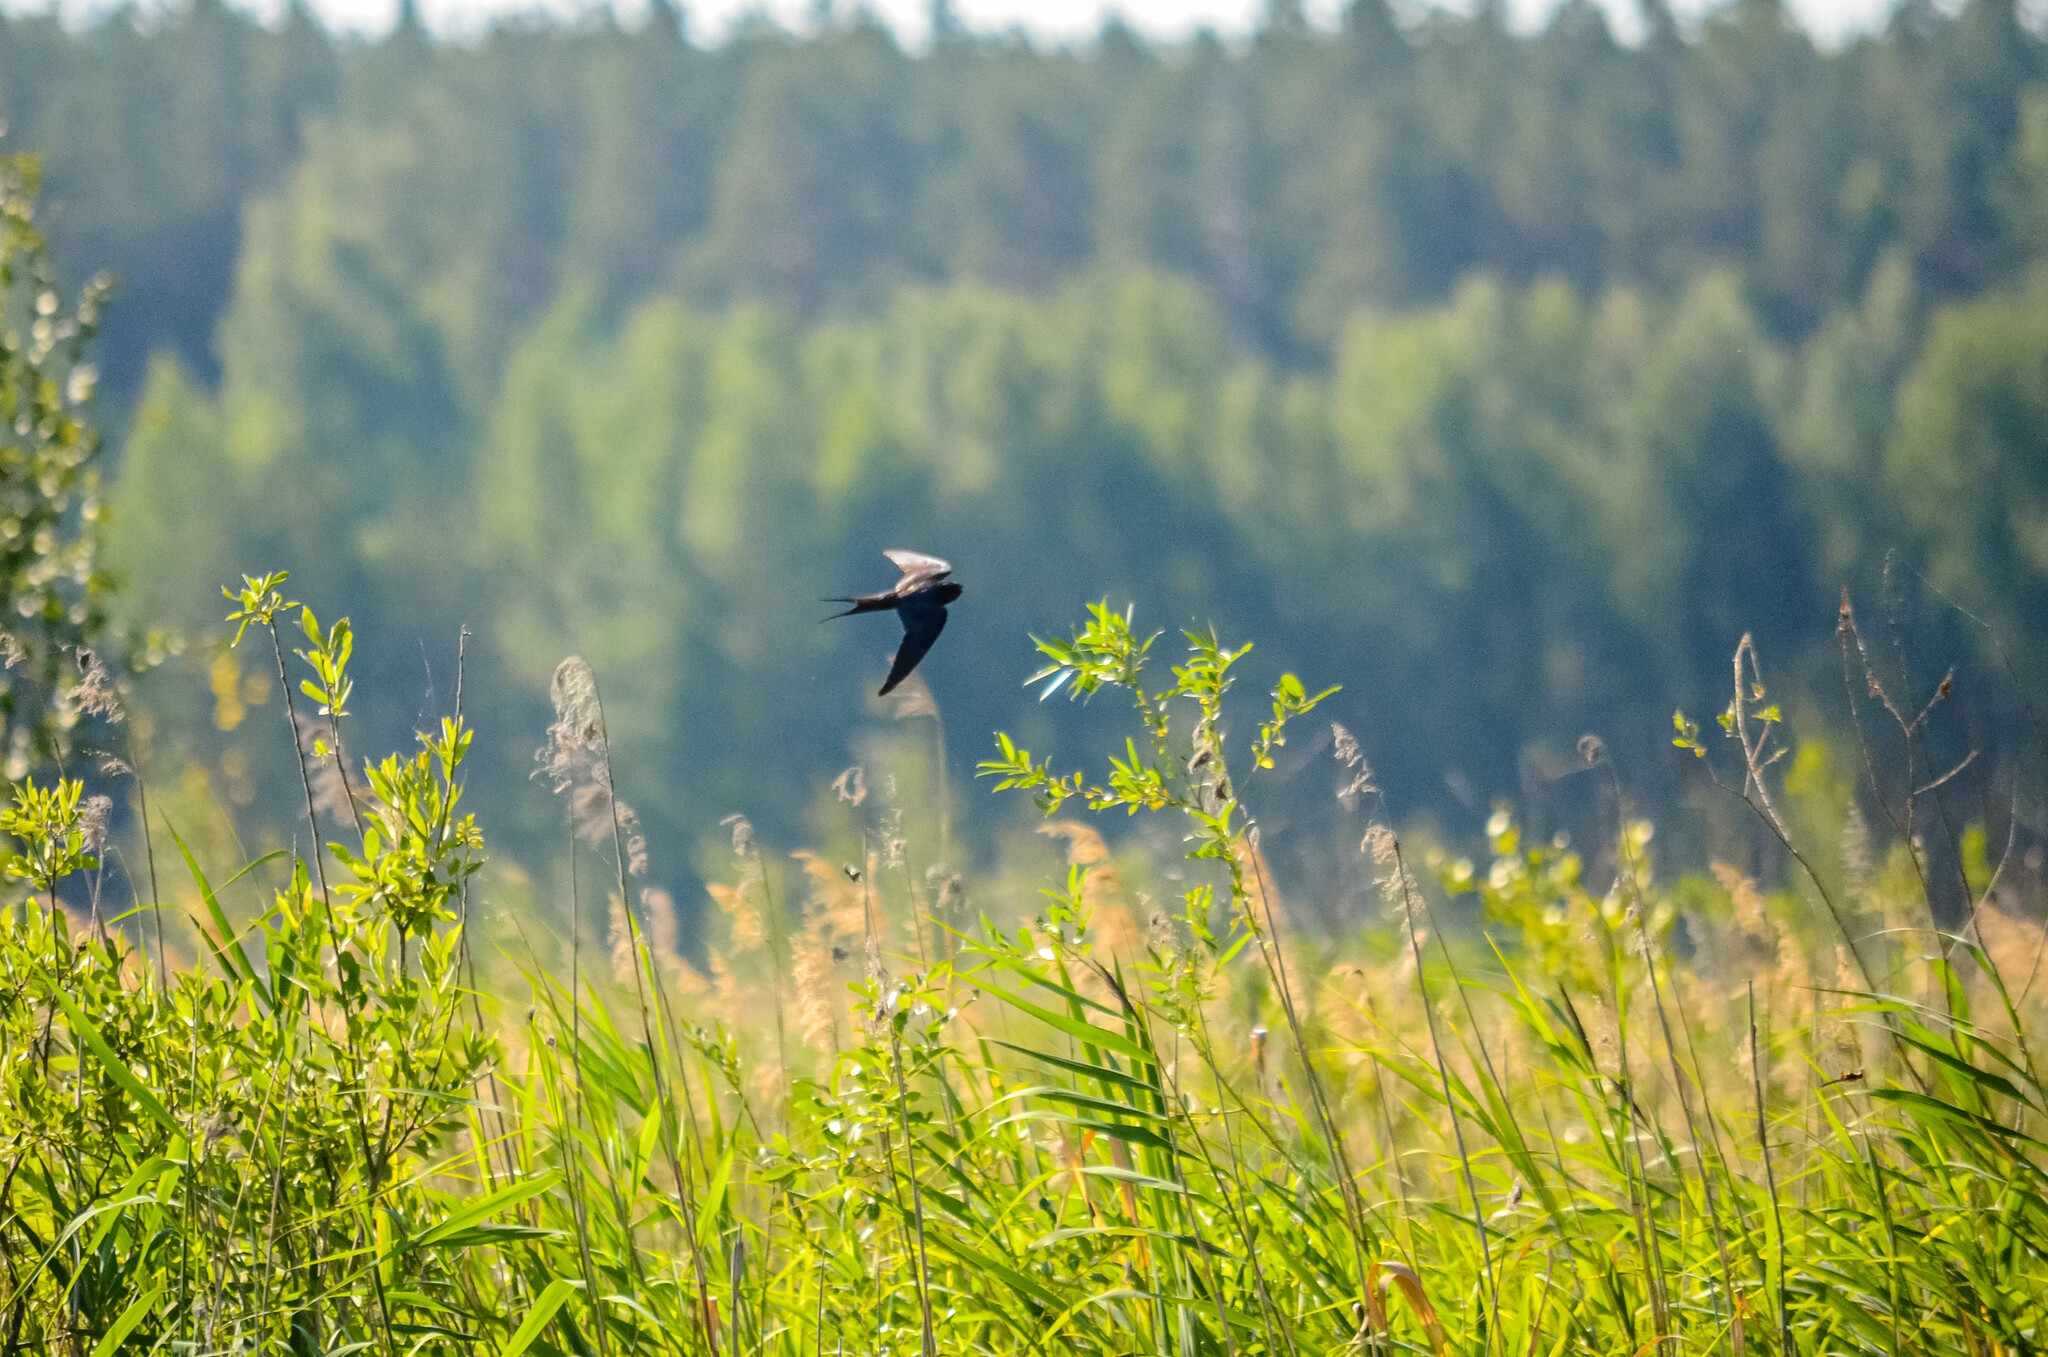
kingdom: Animalia
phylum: Chordata
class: Aves
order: Passeriformes
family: Hirundinidae
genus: Hirundo
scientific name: Hirundo rustica
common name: Barn swallow
